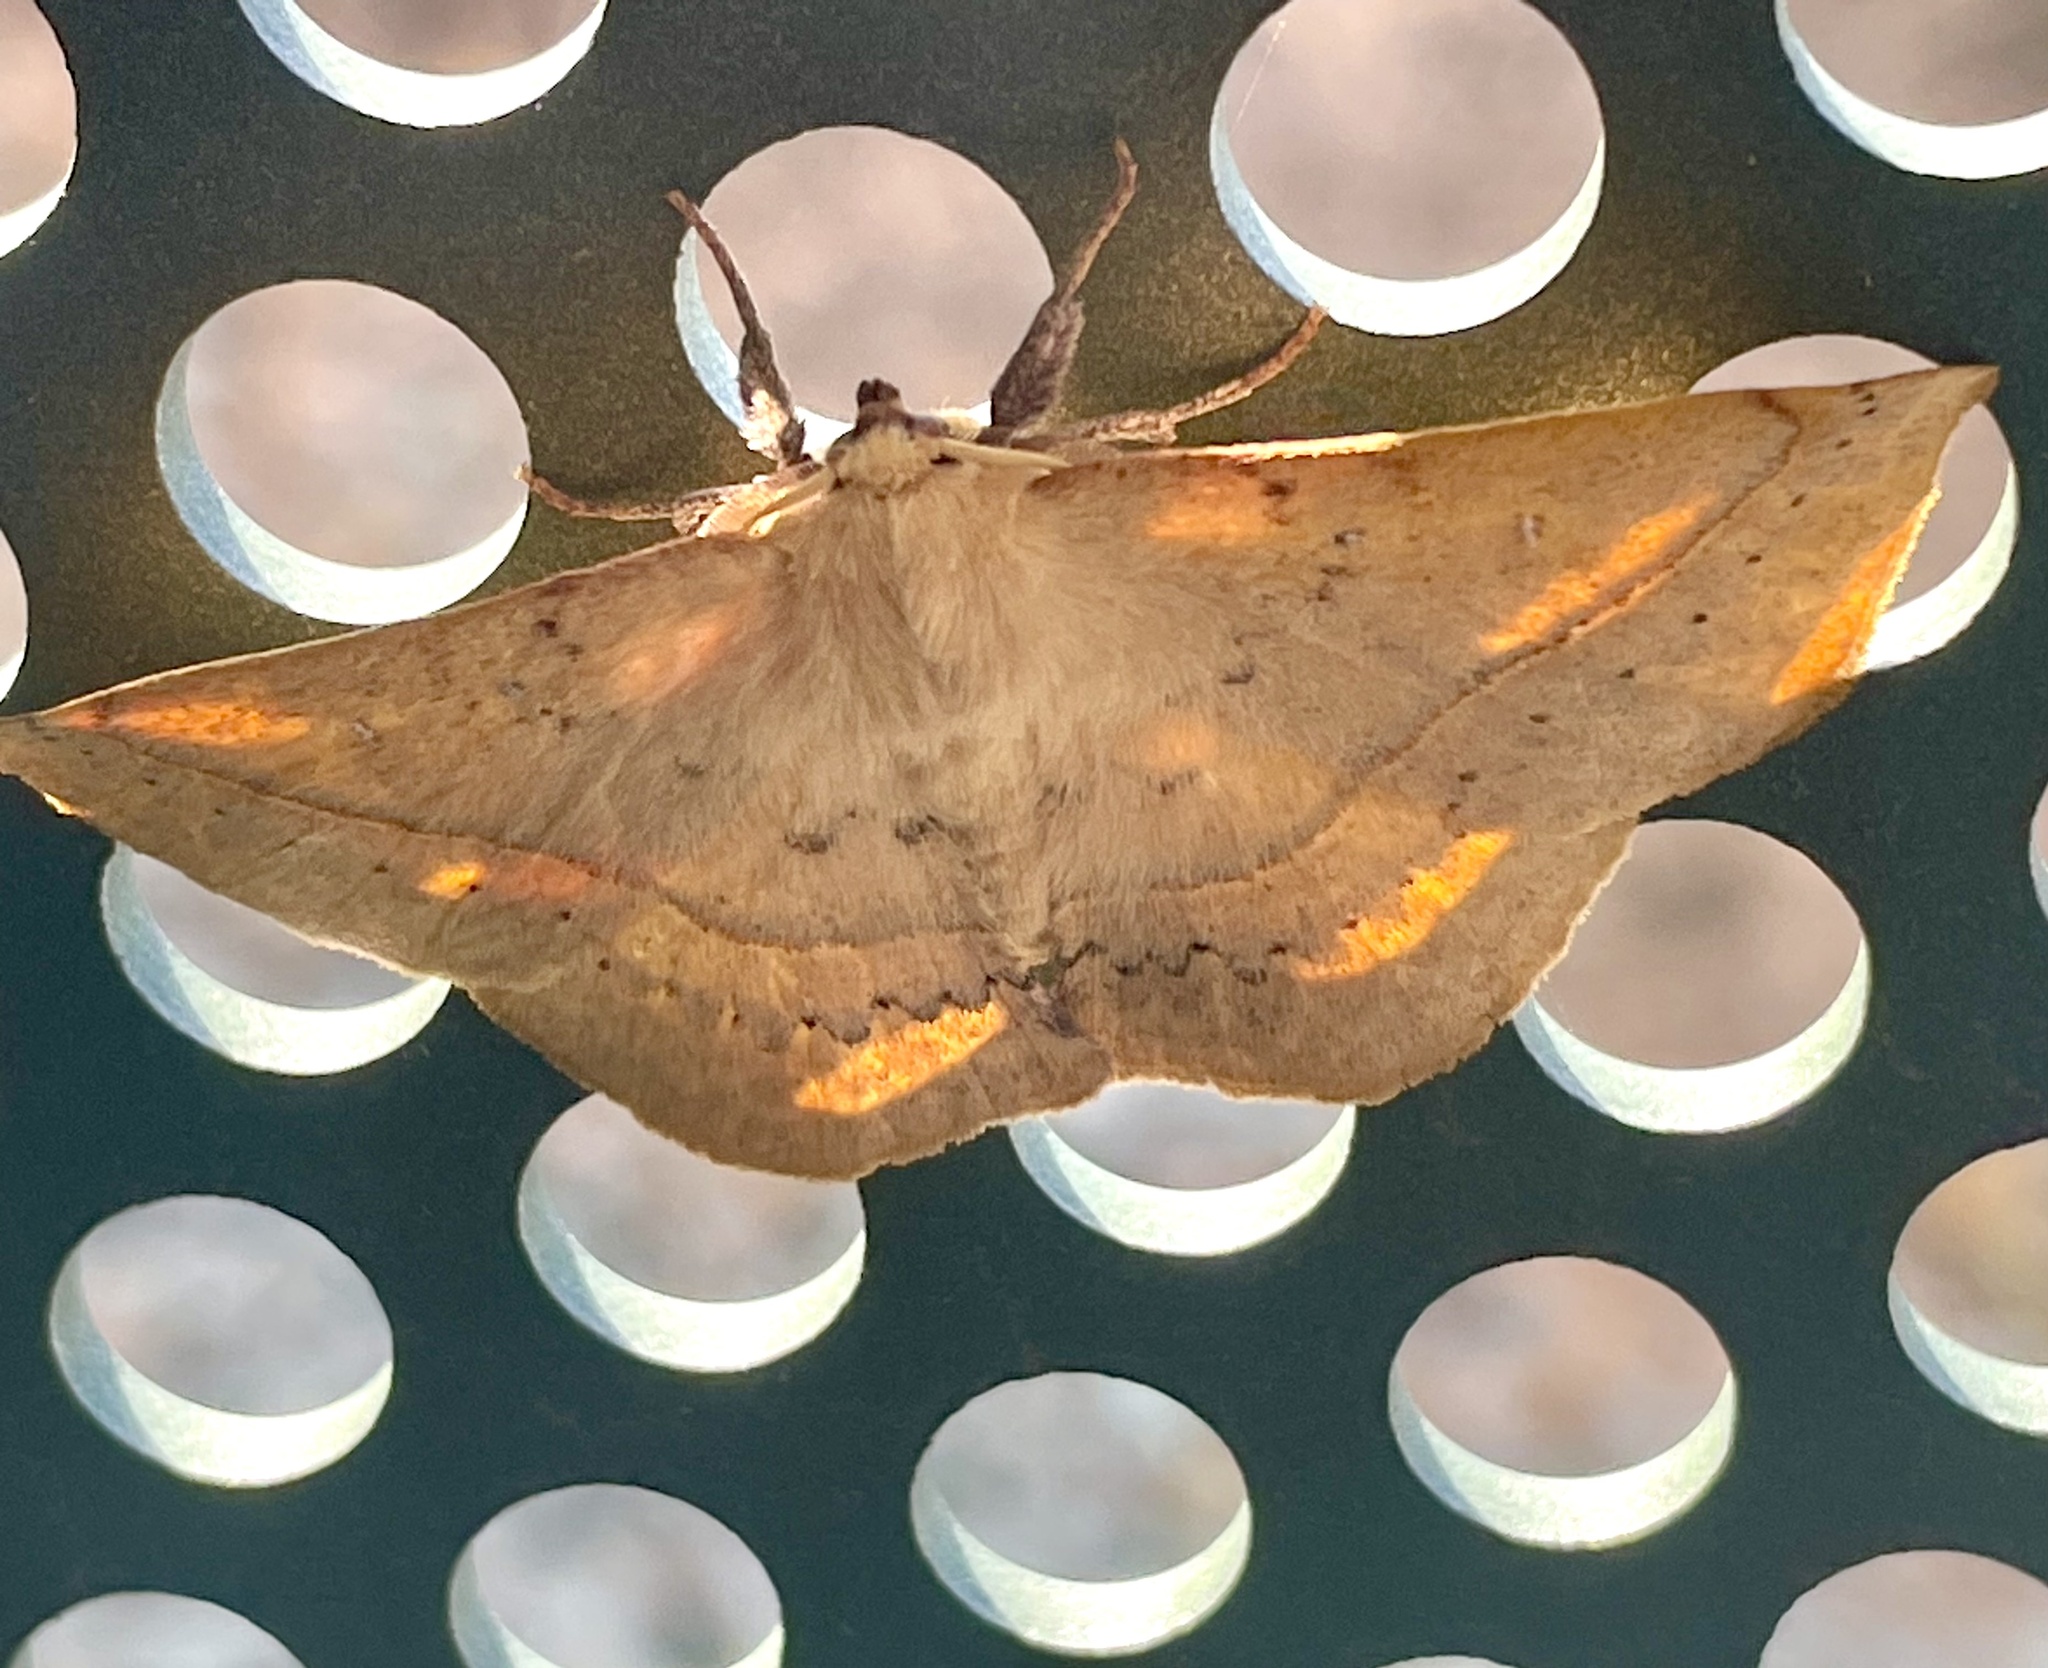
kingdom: Animalia
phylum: Arthropoda
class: Insecta
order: Lepidoptera
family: Anthelidae
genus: Anthela
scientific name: Anthela acuta
